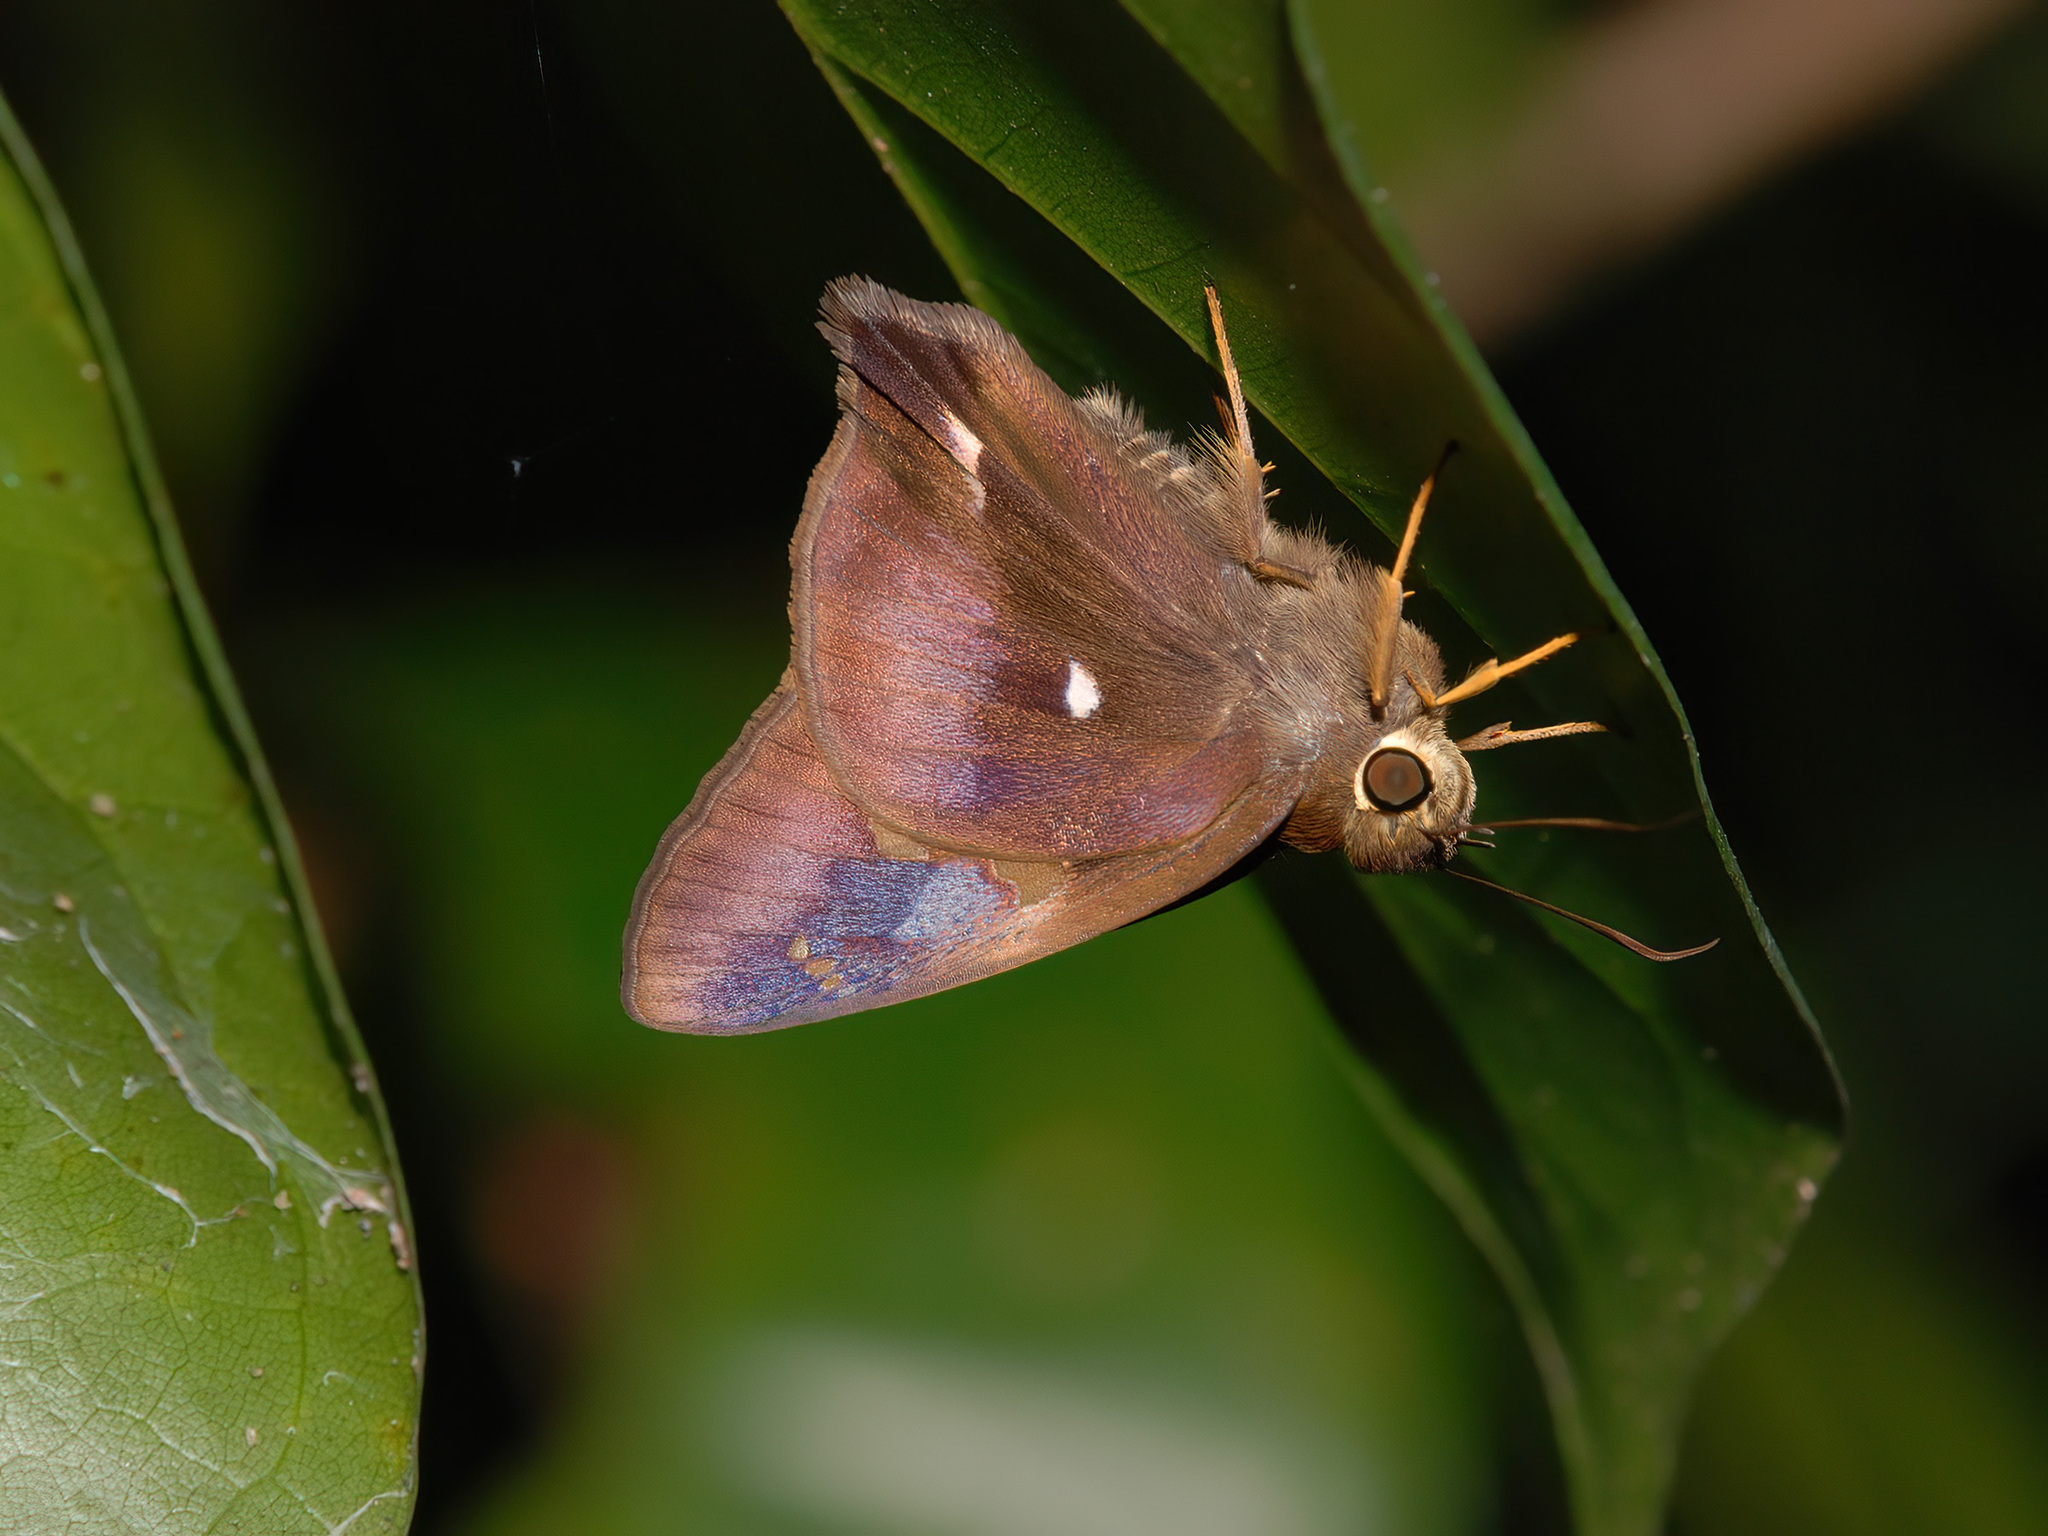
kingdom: Animalia
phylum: Arthropoda
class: Insecta
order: Lepidoptera
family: Hesperiidae
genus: Hasora
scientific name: Hasora badra
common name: Common awl
